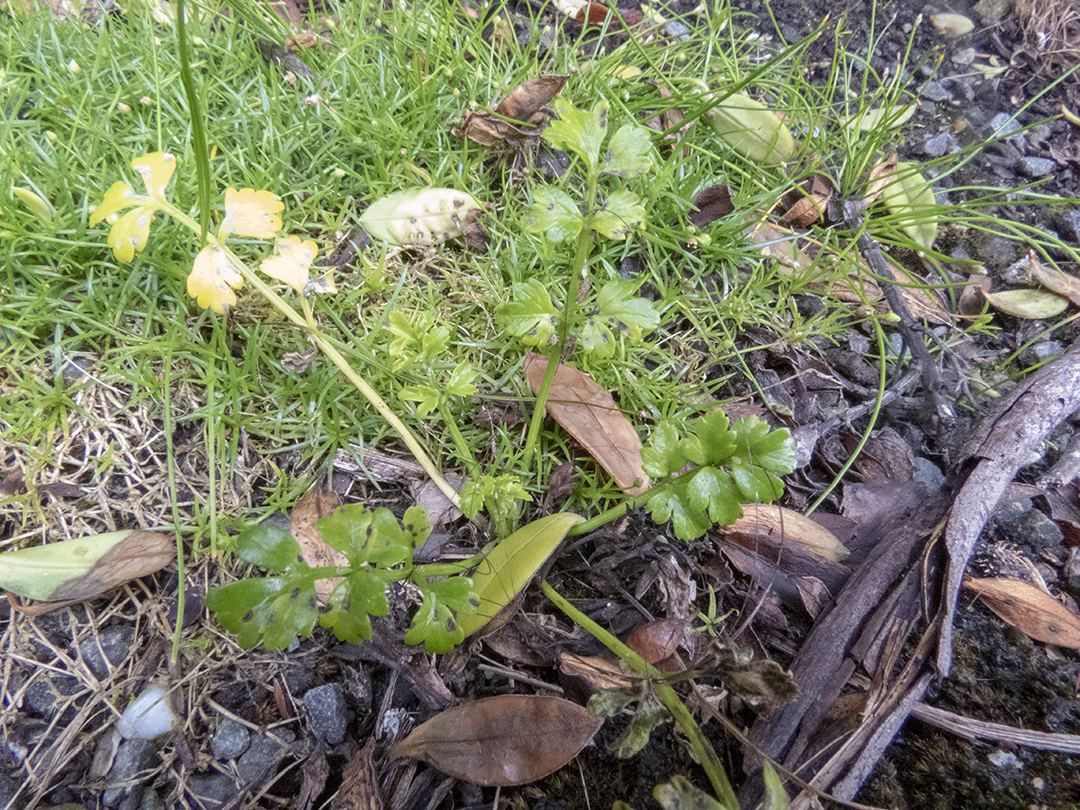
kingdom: Plantae
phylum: Tracheophyta
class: Magnoliopsida
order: Apiales
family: Apiaceae
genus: Apium
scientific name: Apium prostratum
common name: Prostrate marshwort
